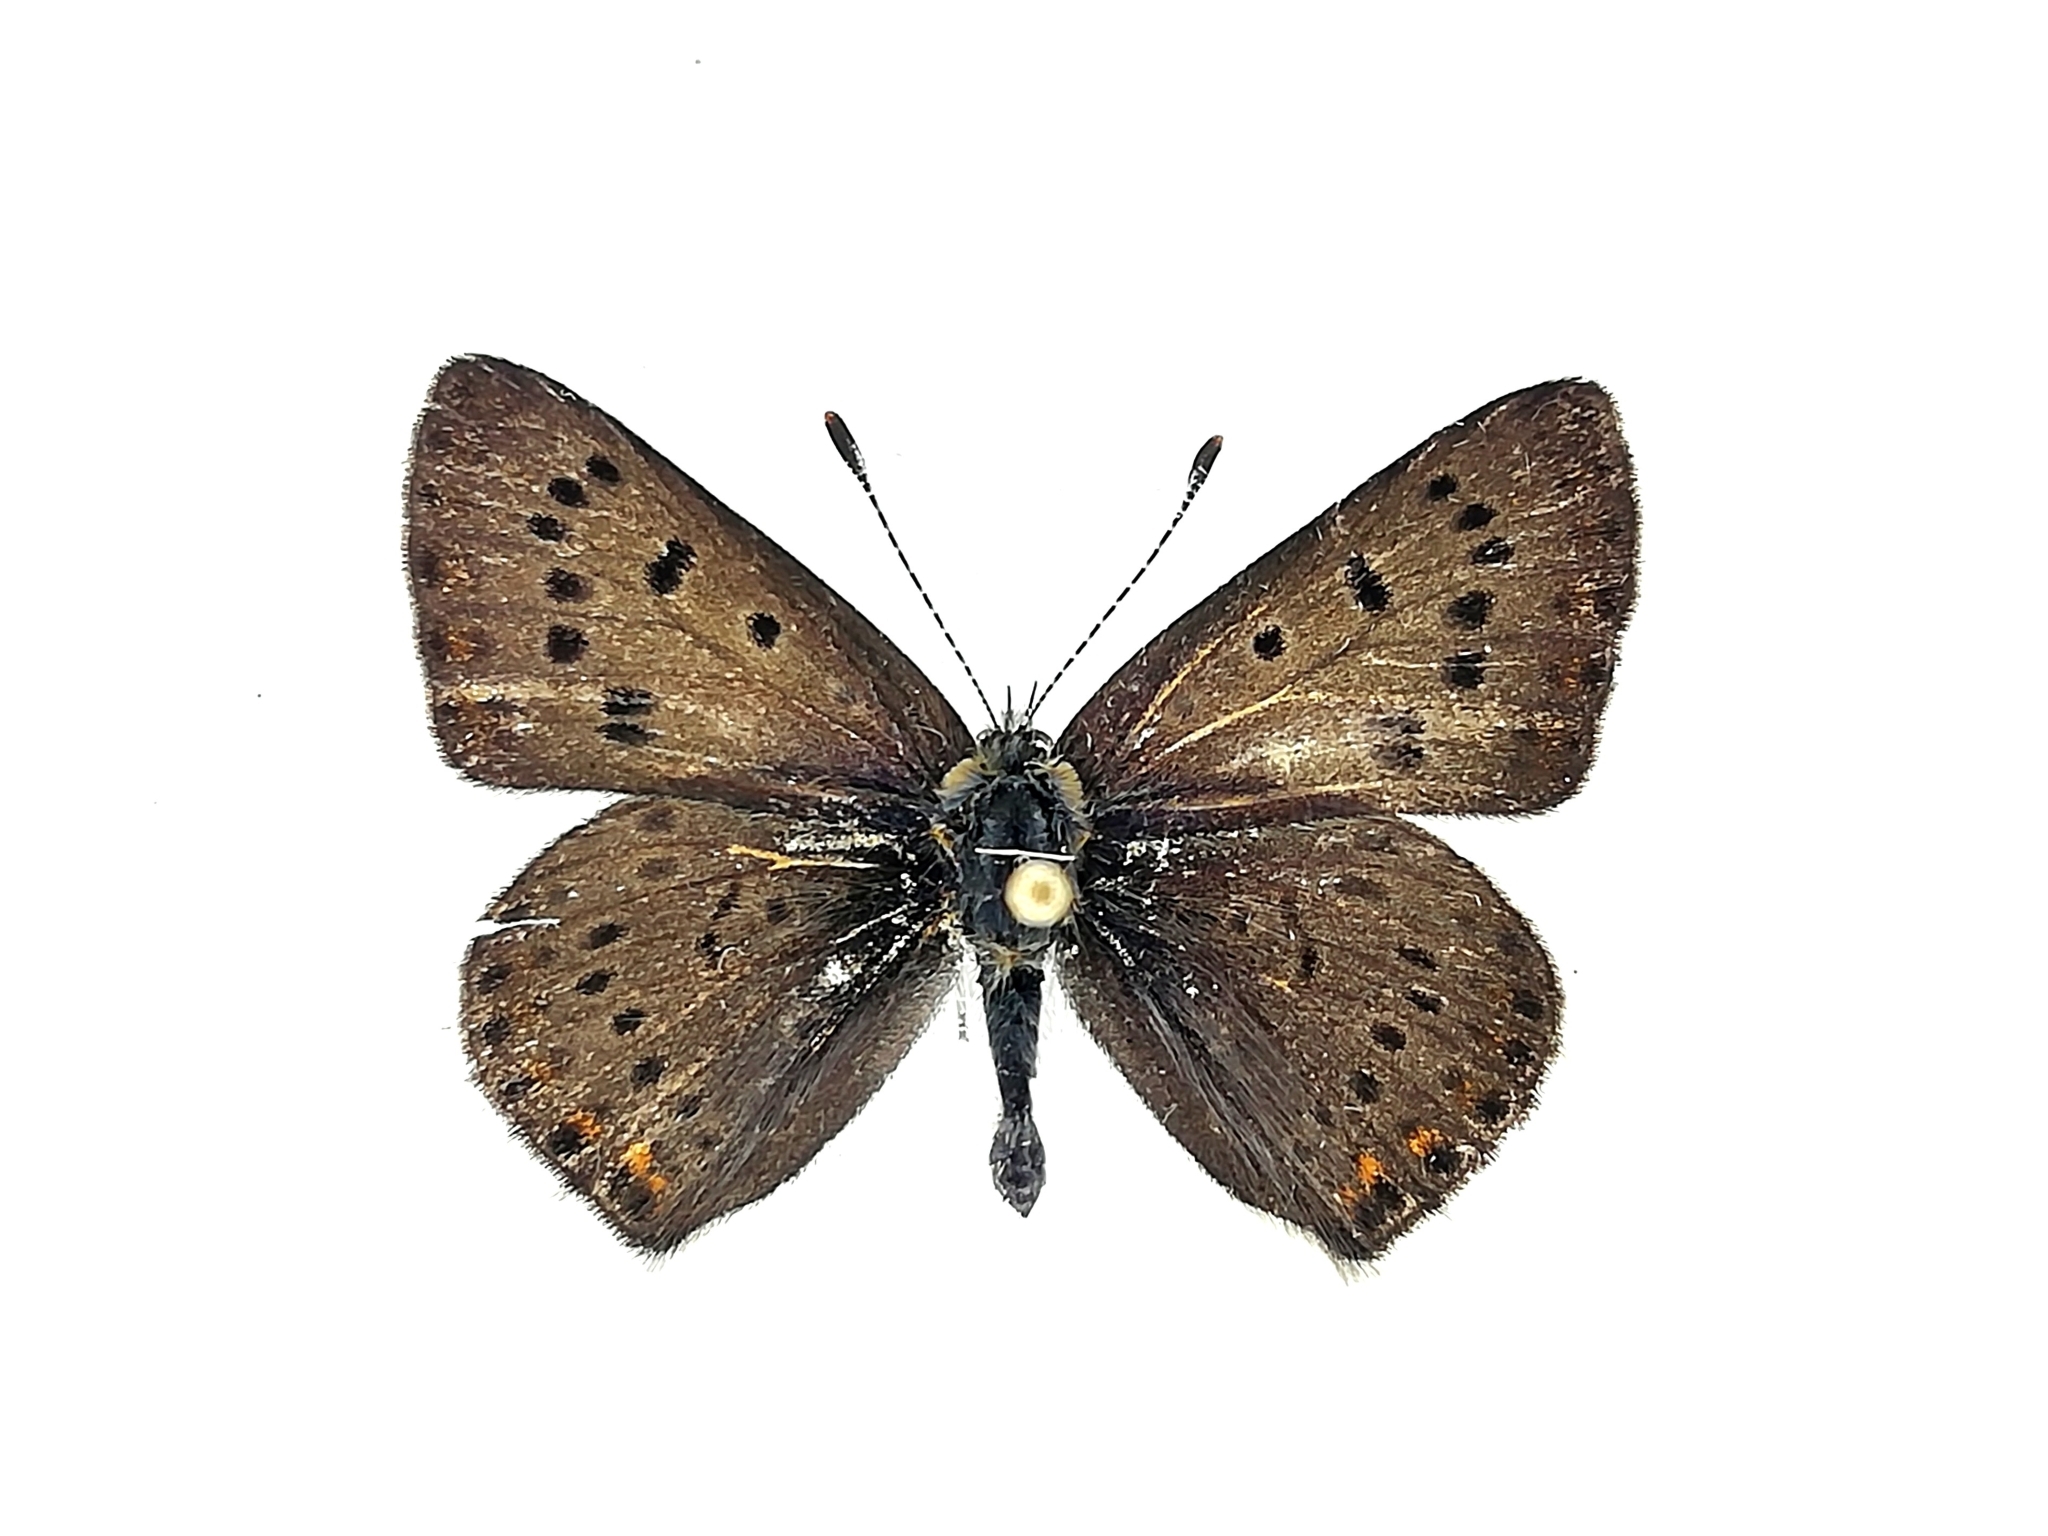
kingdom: Animalia
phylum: Arthropoda
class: Insecta
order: Lepidoptera
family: Lycaenidae
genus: Loweia
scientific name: Loweia tityrus
